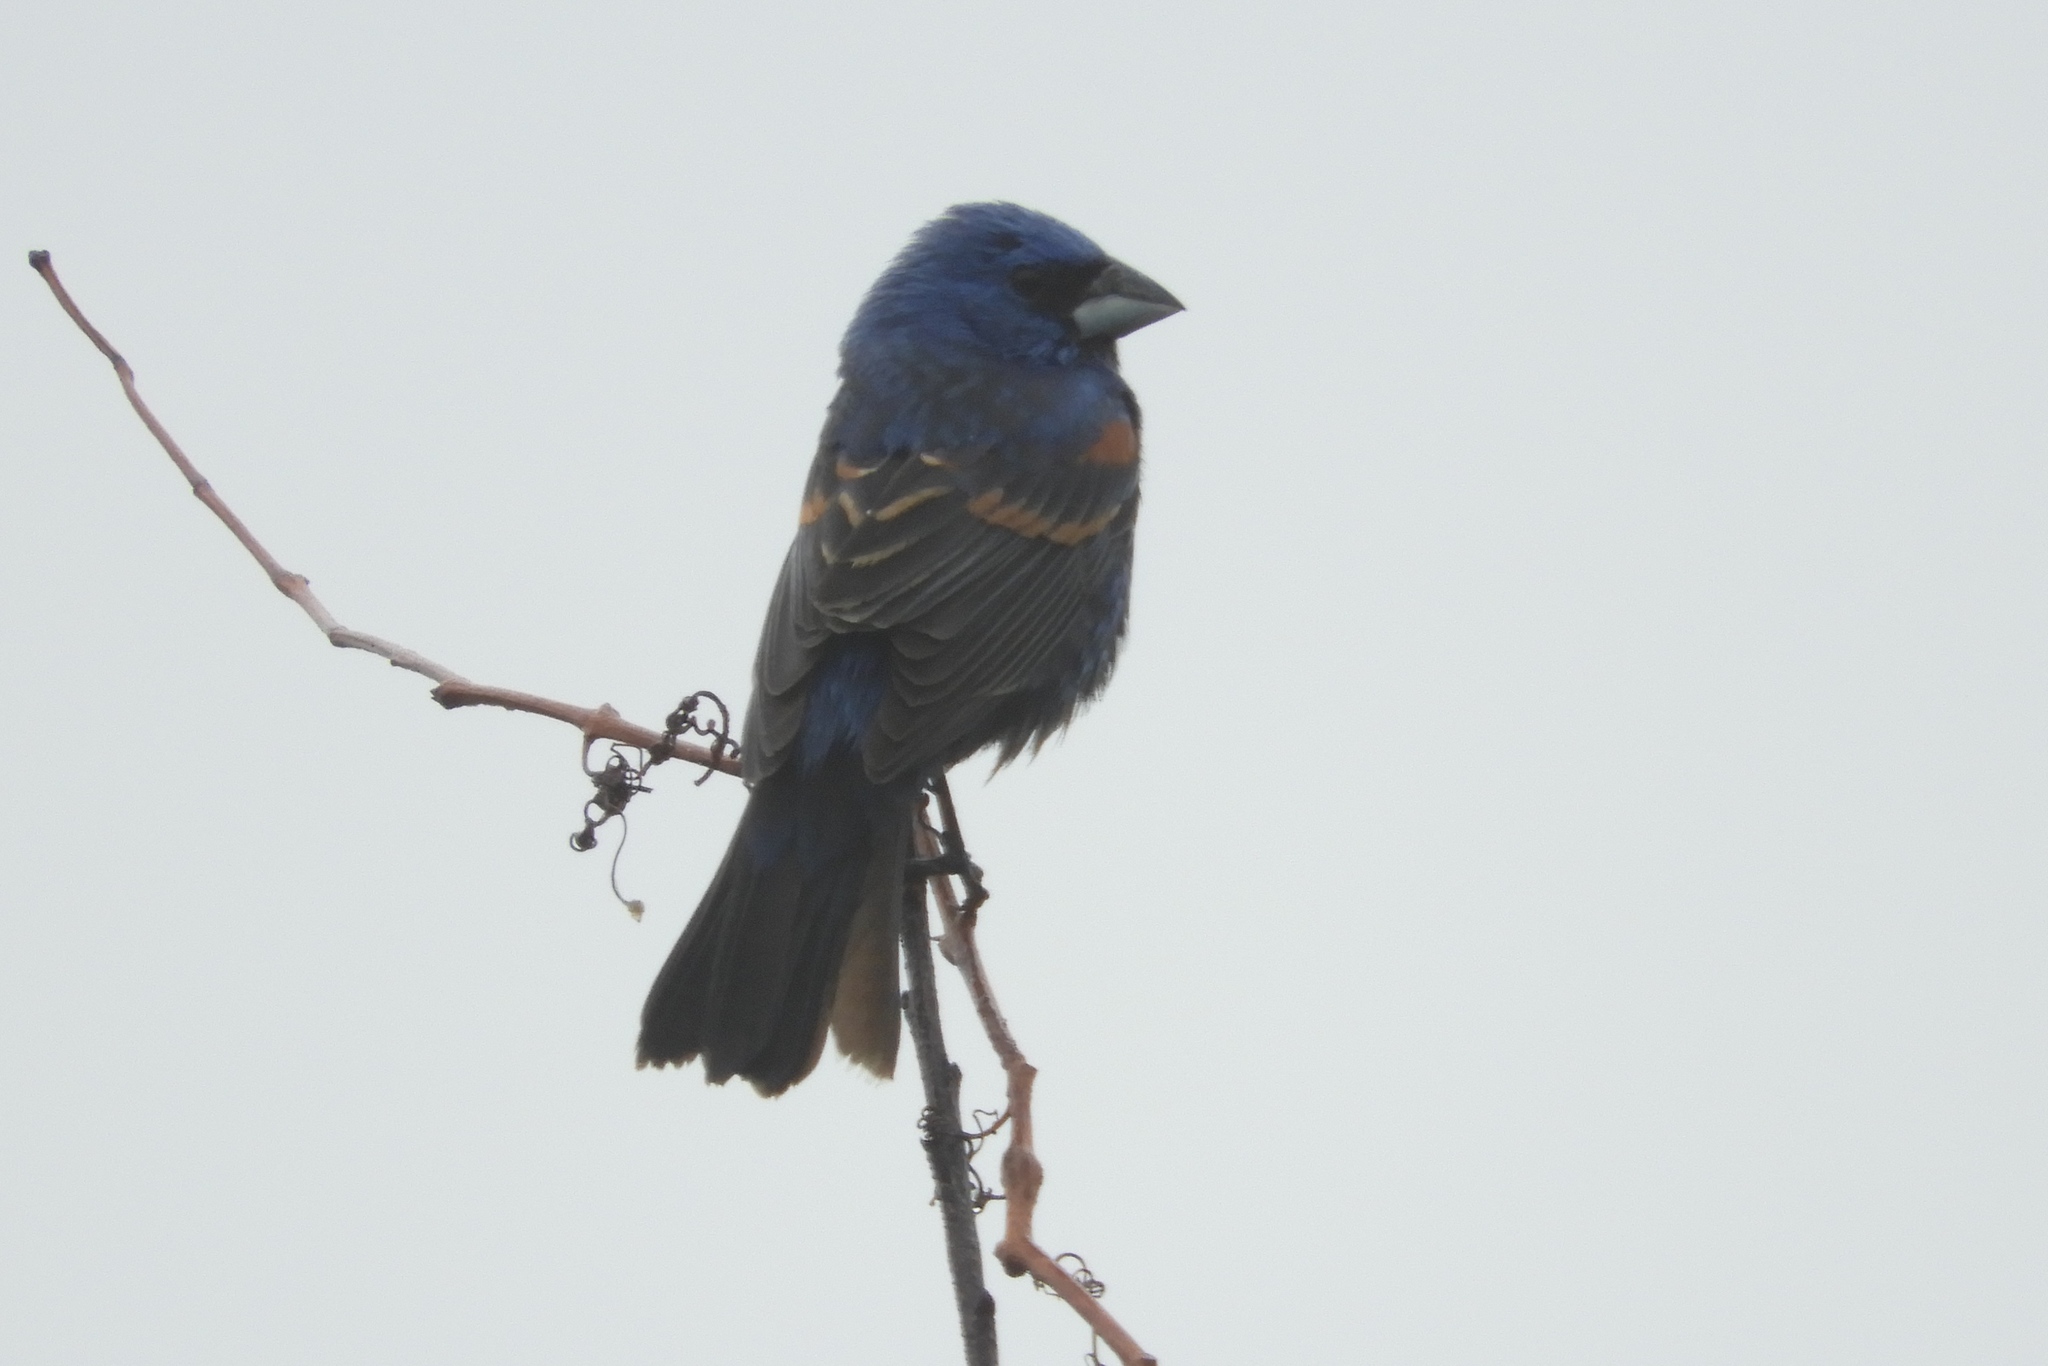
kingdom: Animalia
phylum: Chordata
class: Aves
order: Passeriformes
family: Cardinalidae
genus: Passerina
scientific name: Passerina caerulea
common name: Blue grosbeak
